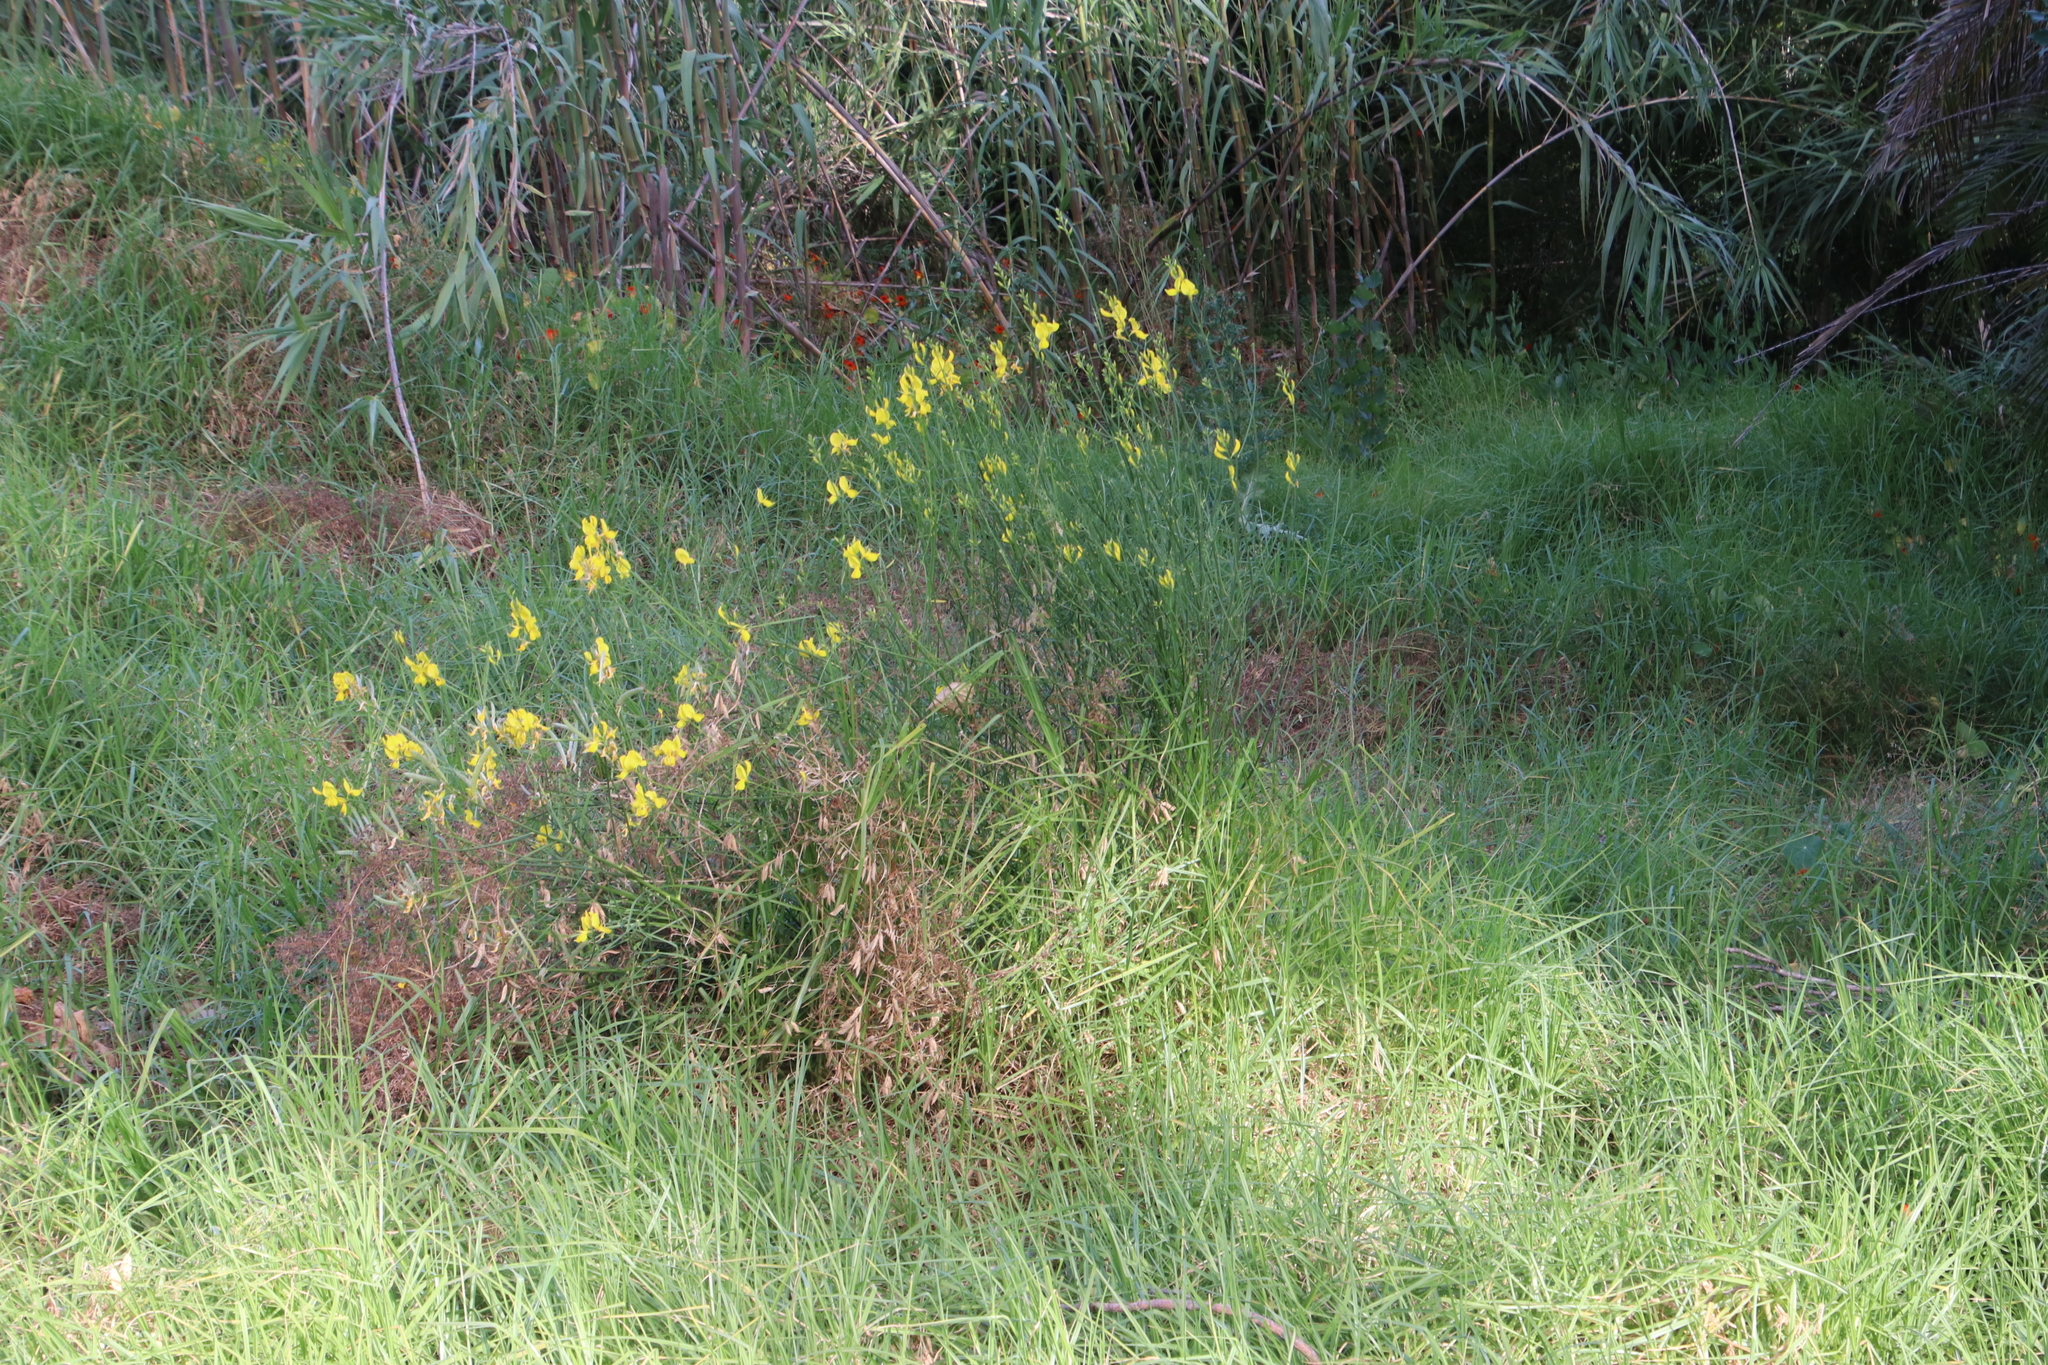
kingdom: Plantae
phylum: Tracheophyta
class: Magnoliopsida
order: Fabales
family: Fabaceae
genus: Spartium
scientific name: Spartium junceum
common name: Spanish broom
